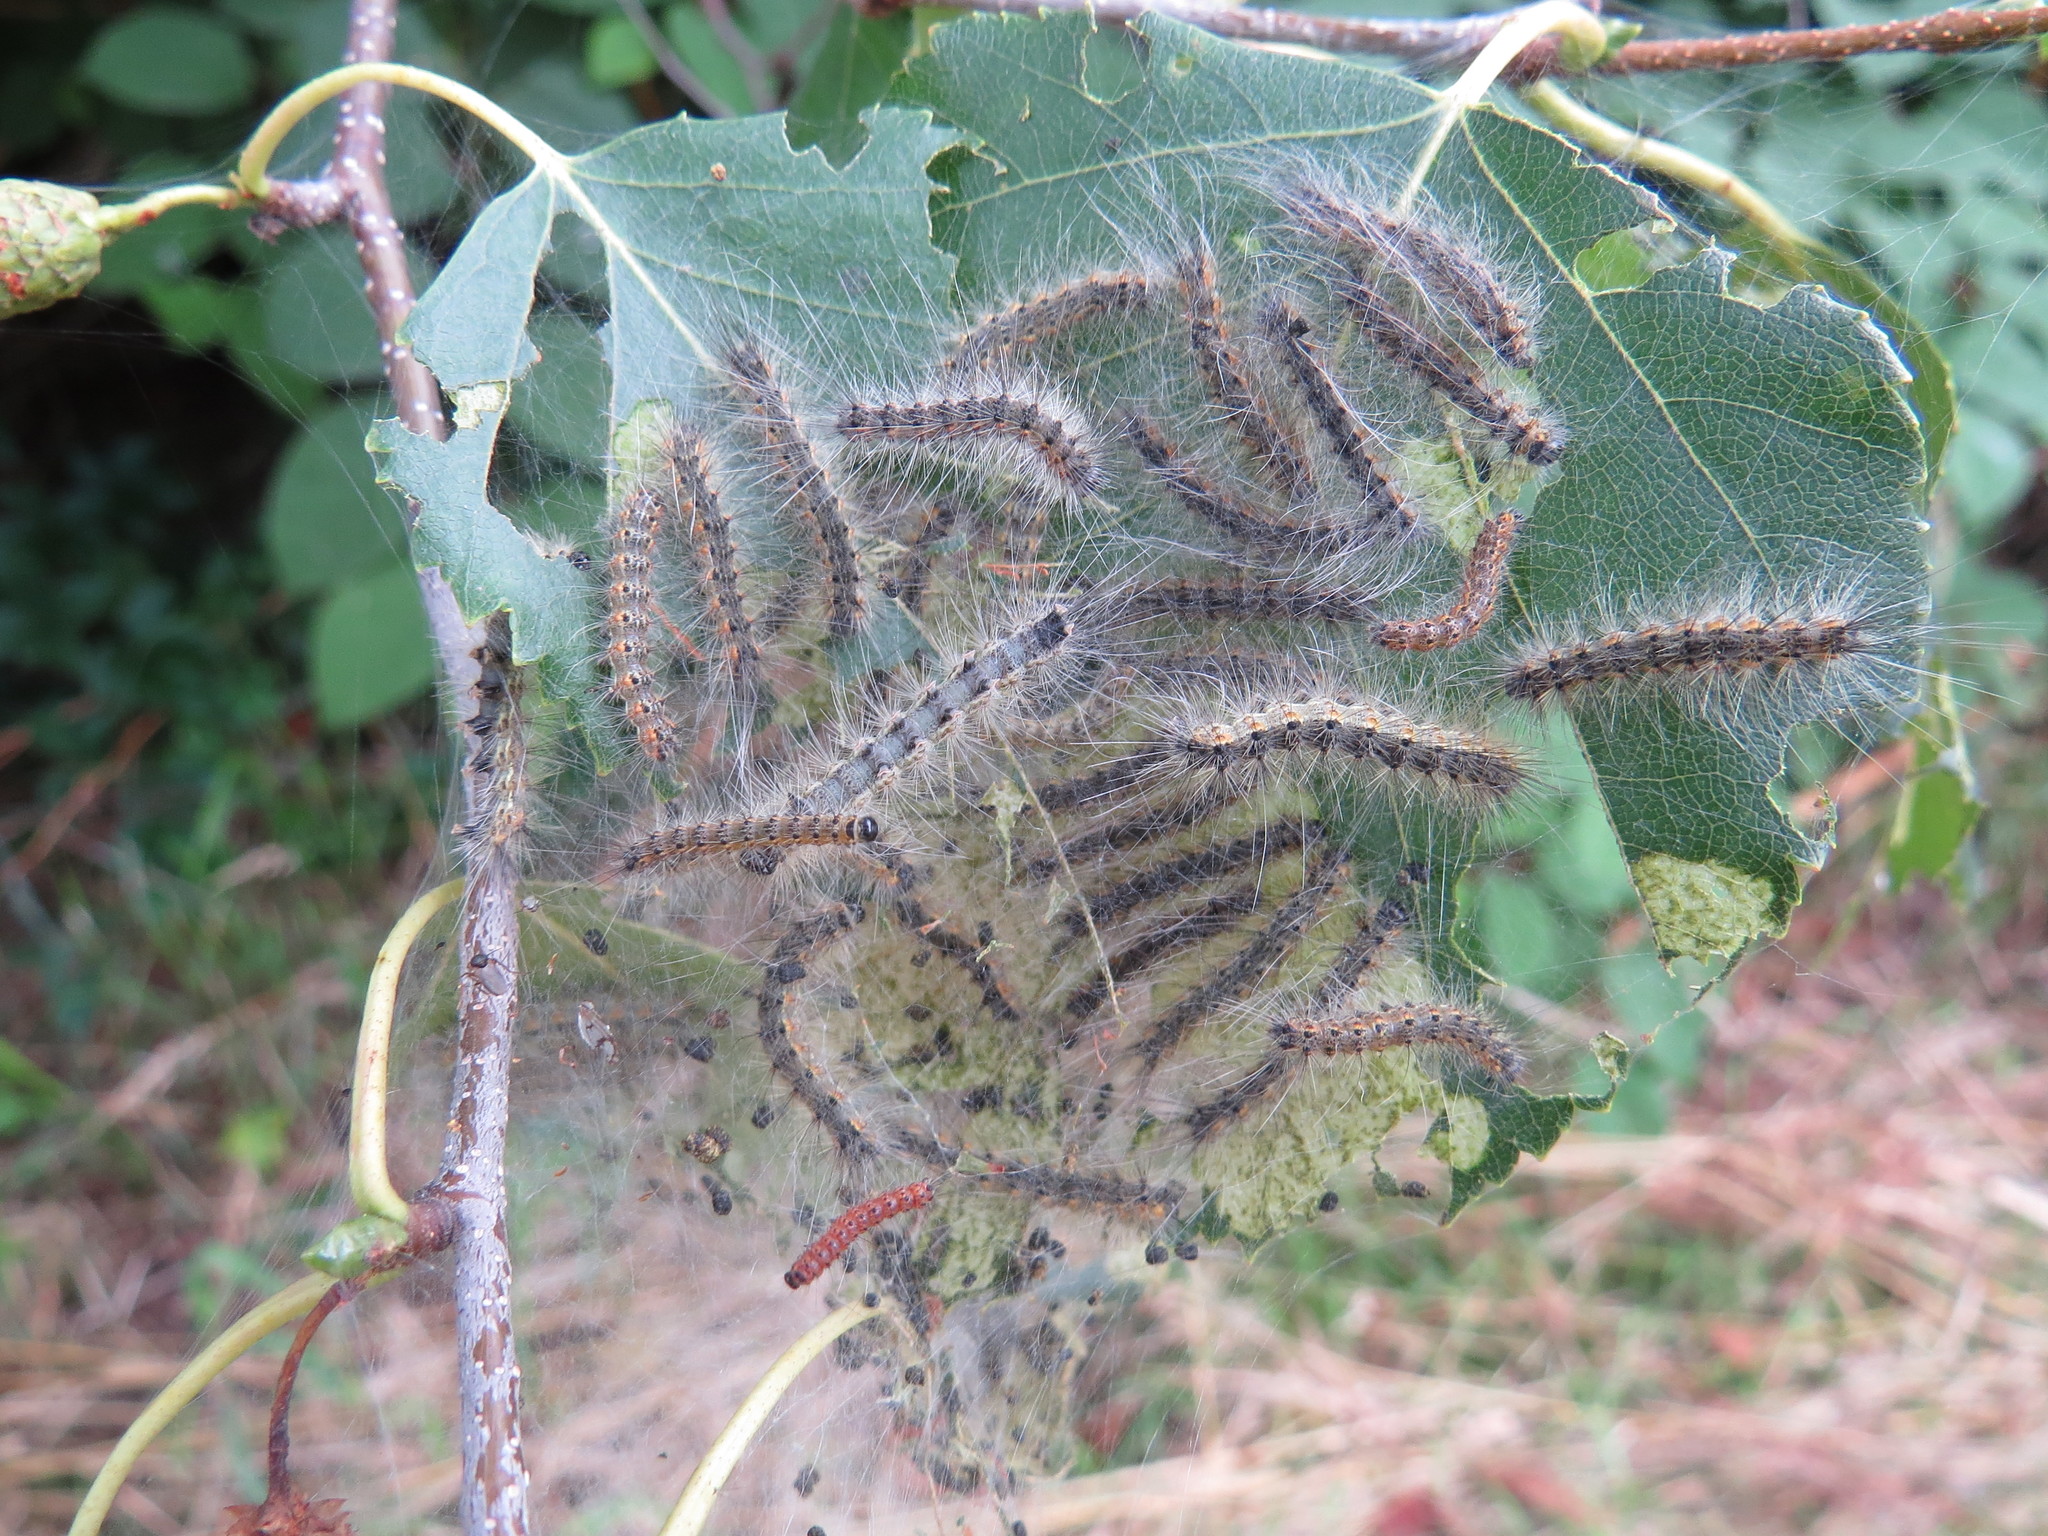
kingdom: Animalia
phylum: Arthropoda
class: Insecta
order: Lepidoptera
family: Erebidae
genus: Hyphantria
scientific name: Hyphantria cunea
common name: American white moth
